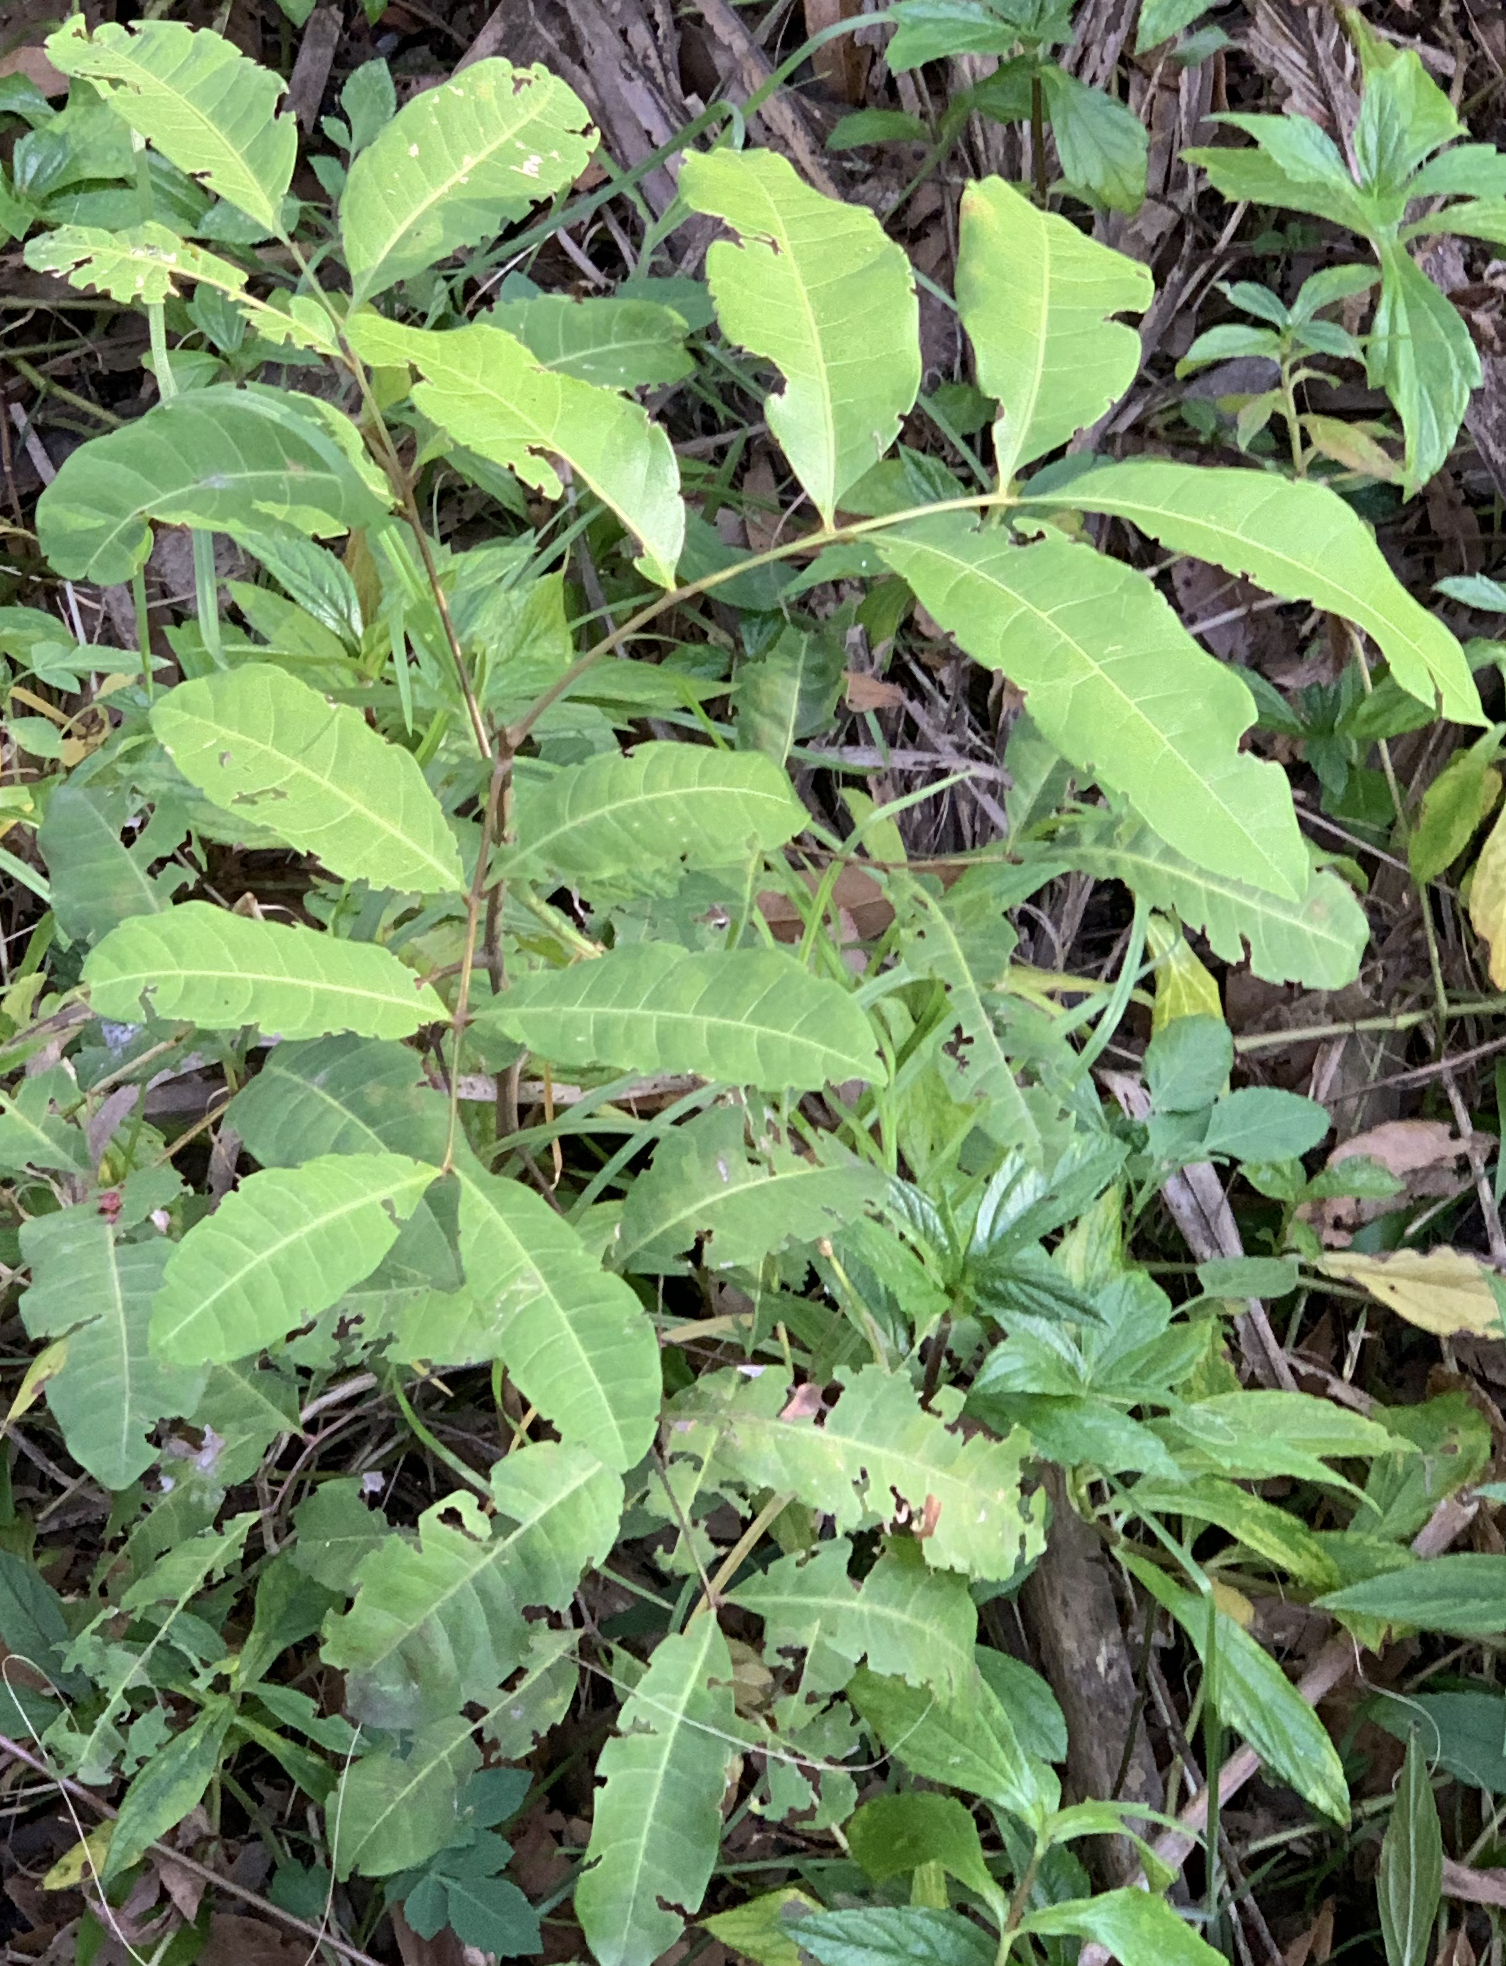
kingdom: Plantae
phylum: Tracheophyta
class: Magnoliopsida
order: Sapindales
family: Sapindaceae
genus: Cupaniopsis
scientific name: Cupaniopsis anacardioides
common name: Carrotwood
